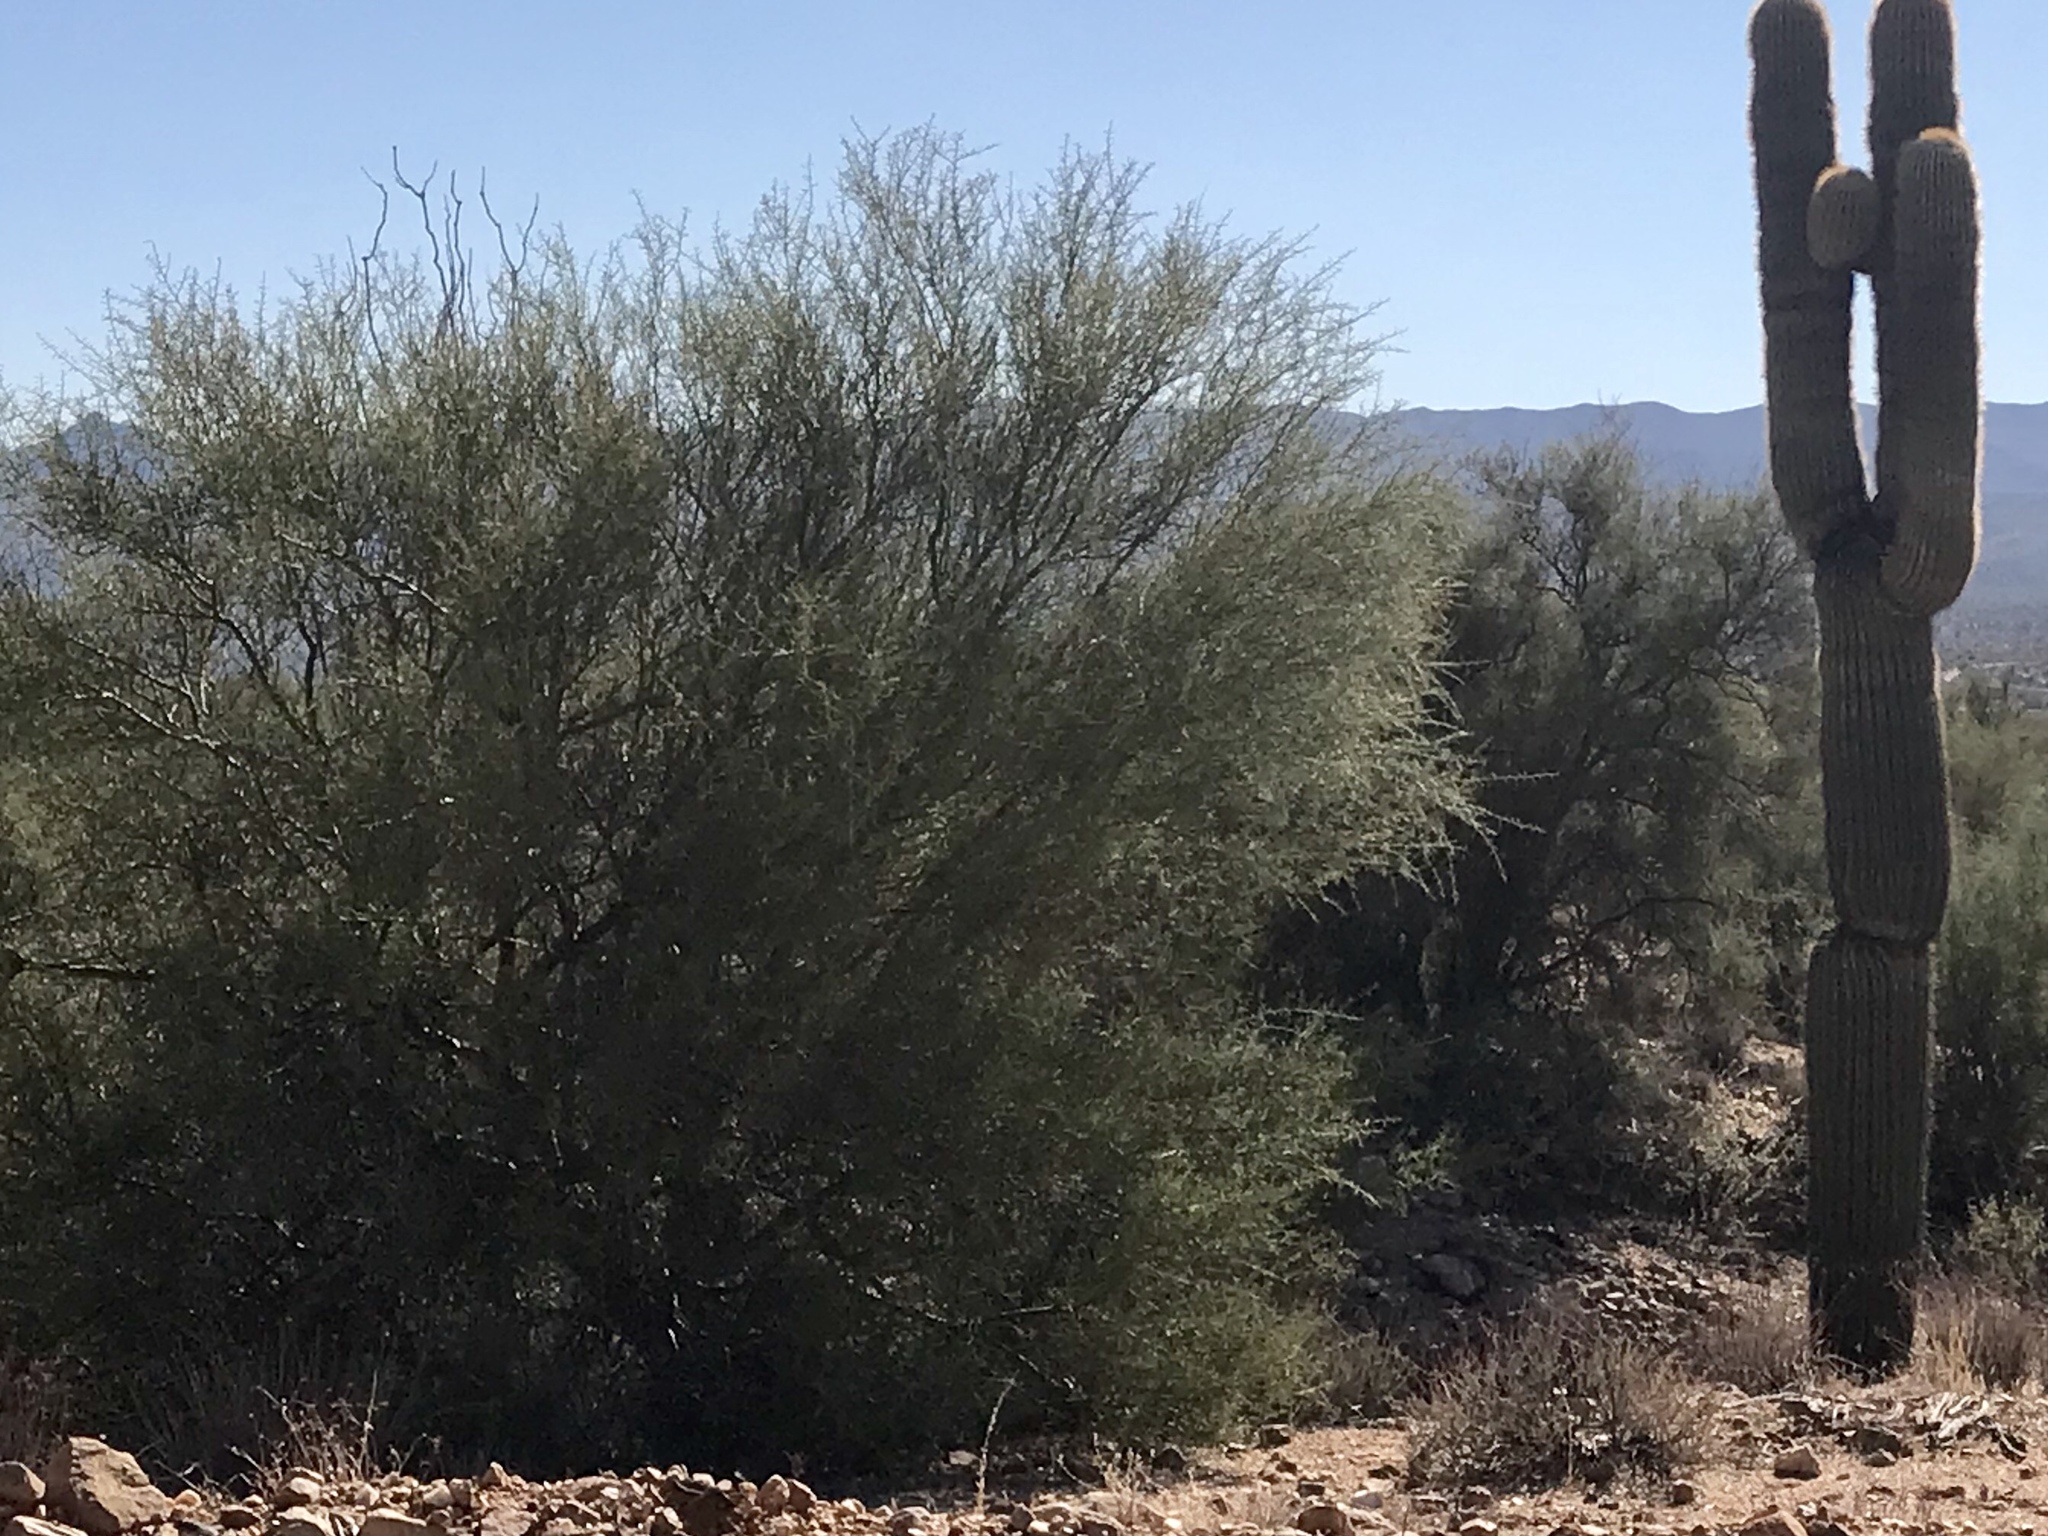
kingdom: Plantae
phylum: Tracheophyta
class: Magnoliopsida
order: Fabales
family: Fabaceae
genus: Parkinsonia
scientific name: Parkinsonia florida
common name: Blue paloverde
